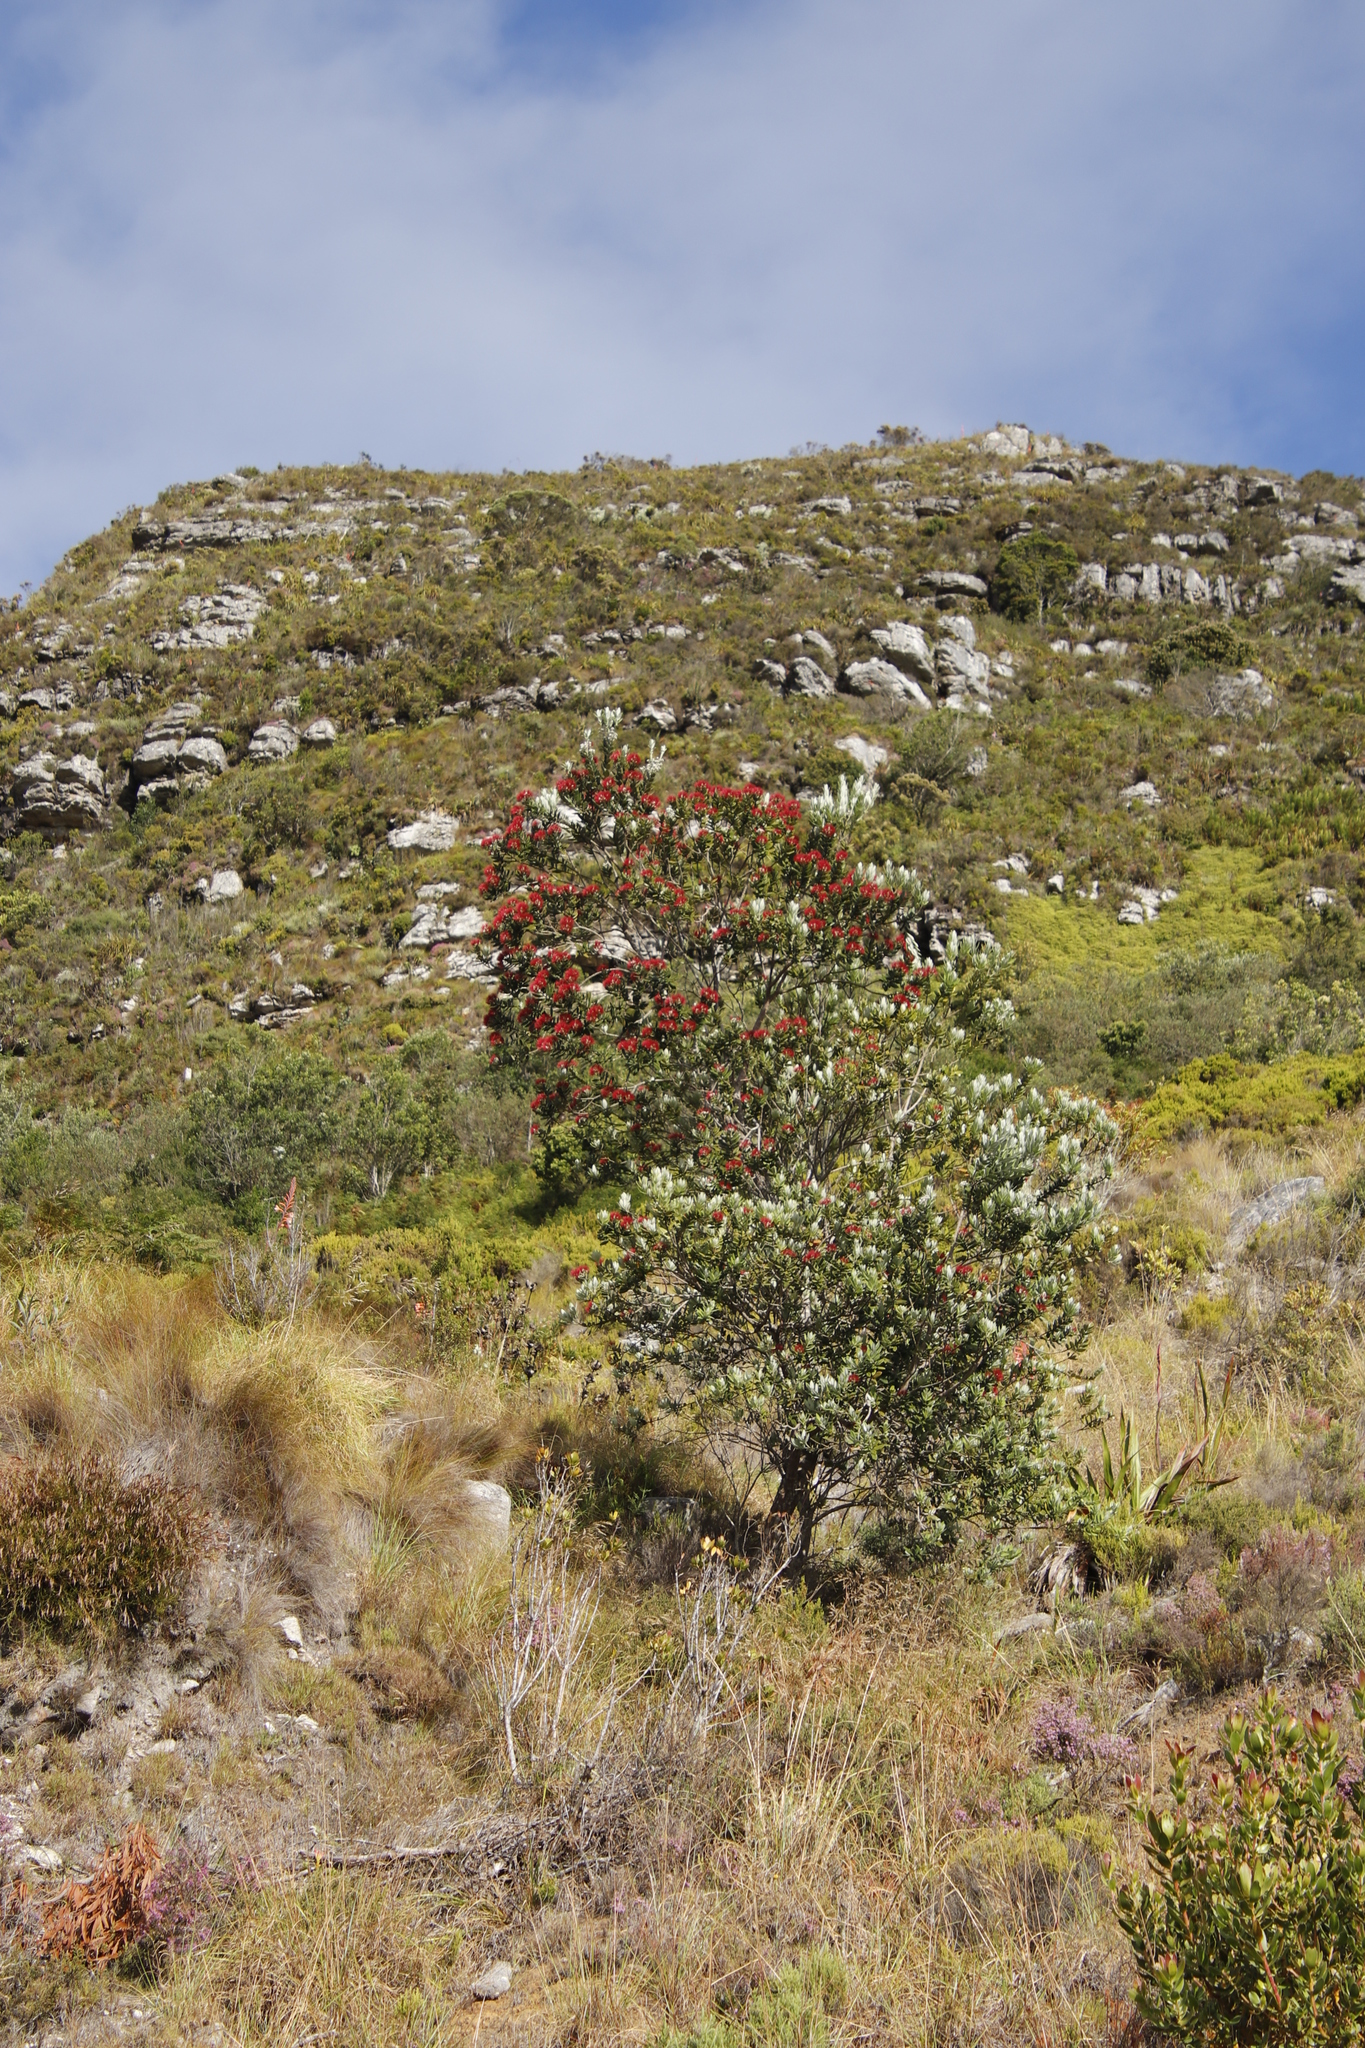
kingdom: Plantae
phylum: Tracheophyta
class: Magnoliopsida
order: Myrtales
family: Myrtaceae
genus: Metrosideros
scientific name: Metrosideros excelsa
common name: New zealand christmastree
